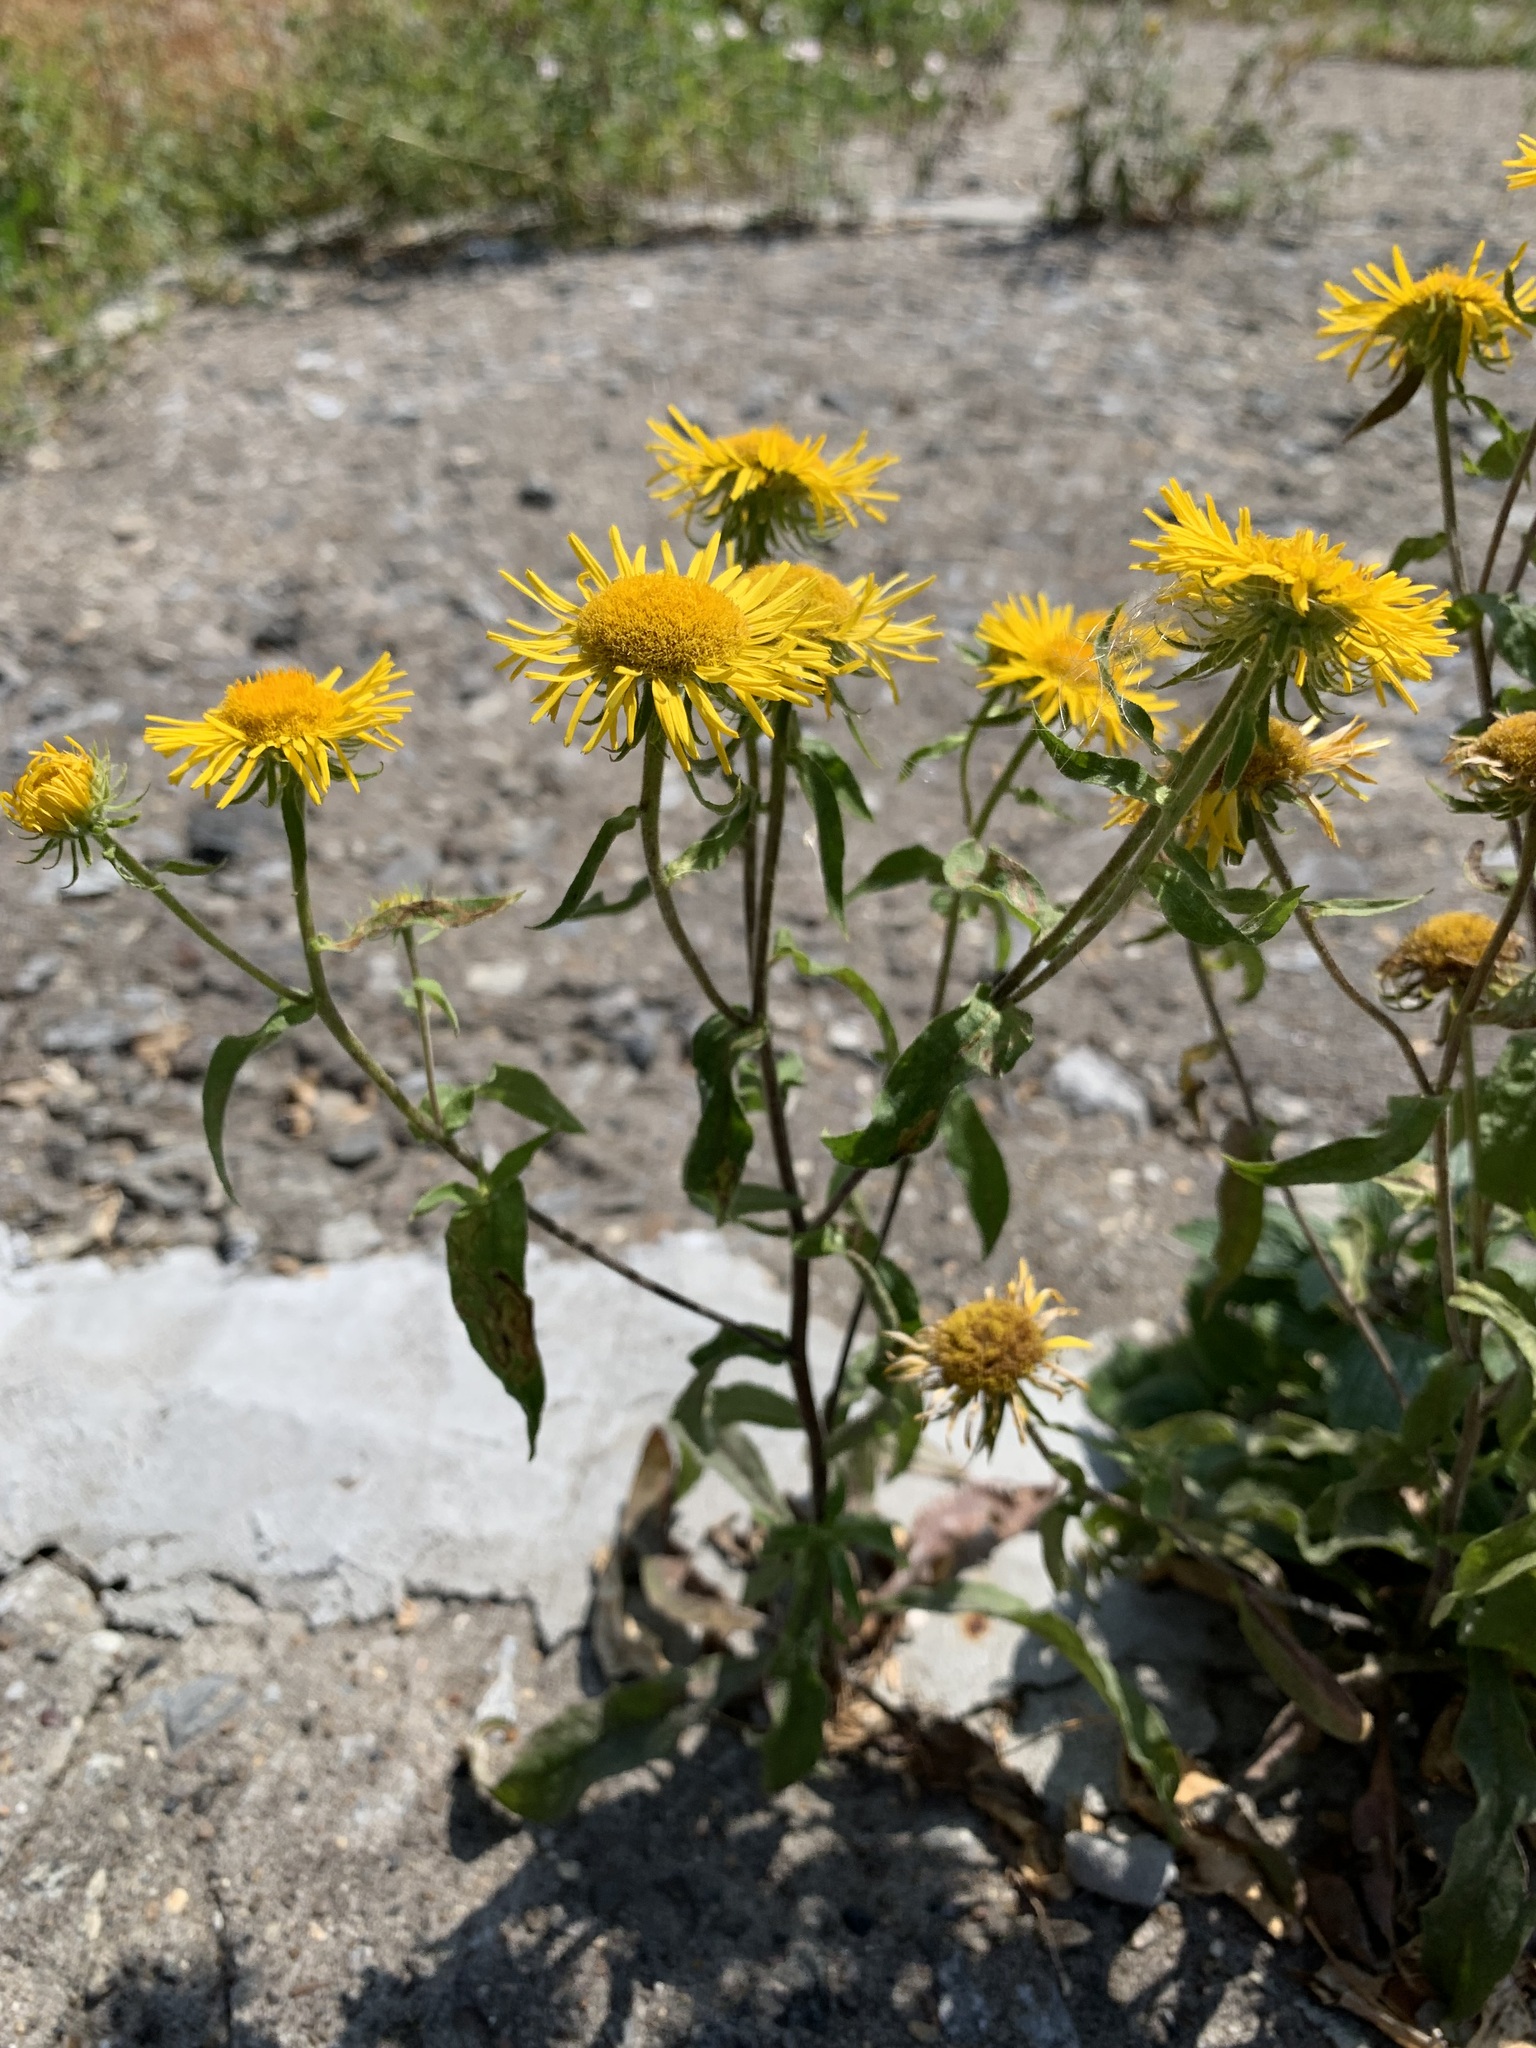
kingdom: Plantae
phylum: Tracheophyta
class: Magnoliopsida
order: Asterales
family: Asteraceae
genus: Pentanema
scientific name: Pentanema britannicum
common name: British elecampane
